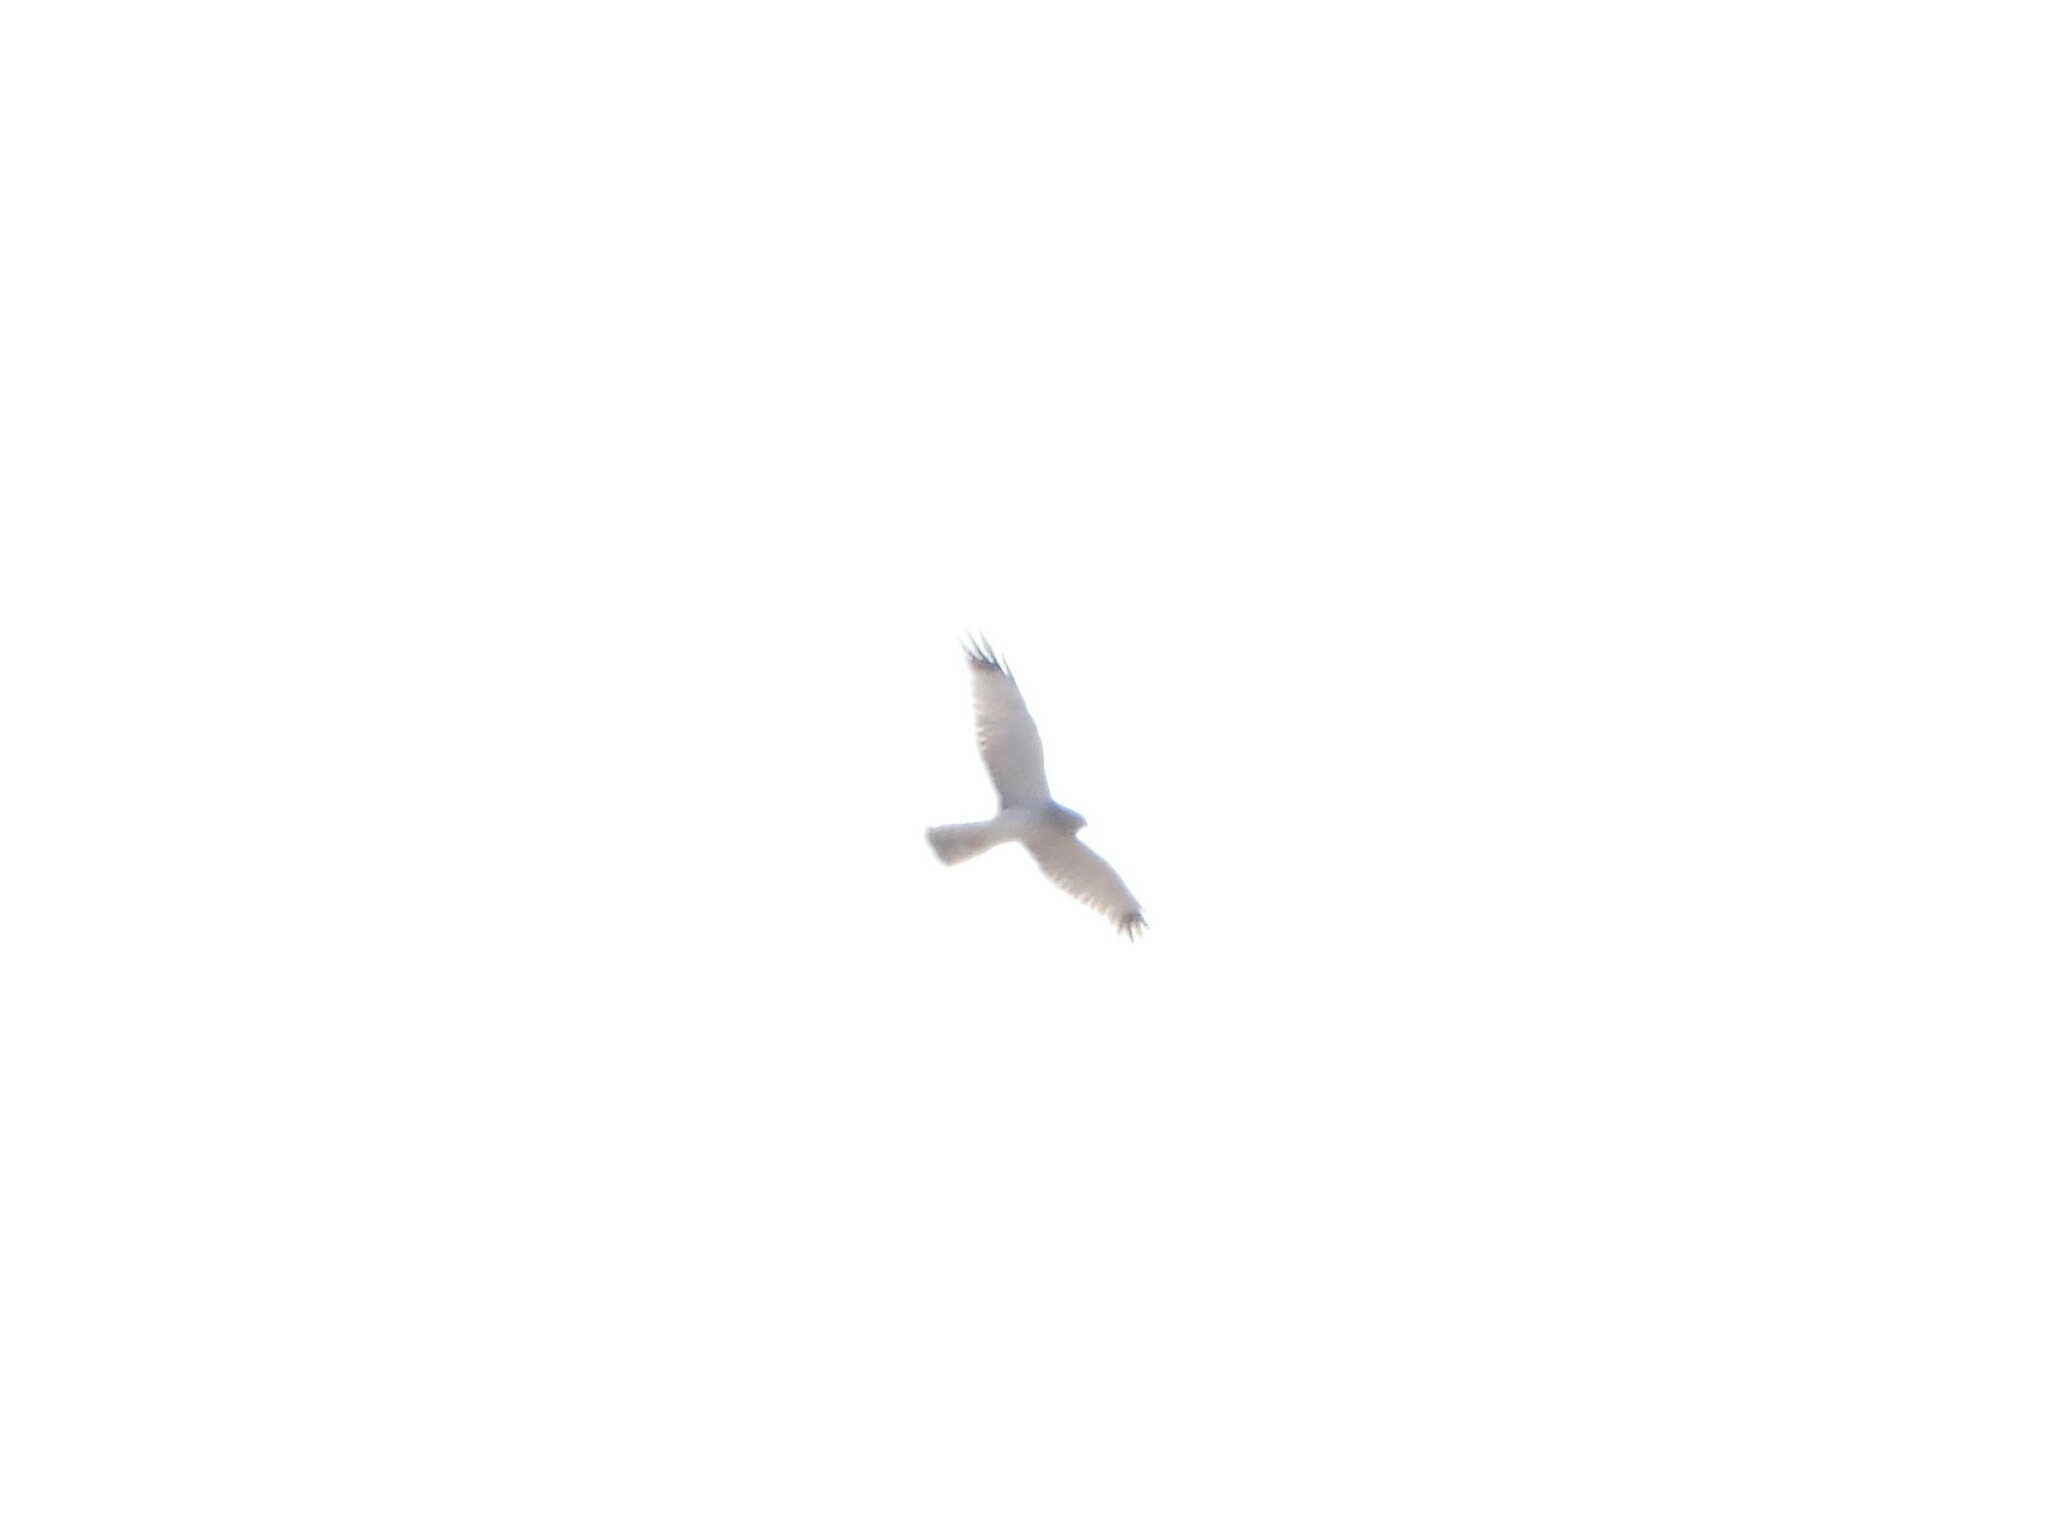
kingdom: Animalia
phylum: Chordata
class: Aves
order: Accipitriformes
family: Accipitridae
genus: Circus
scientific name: Circus cyaneus
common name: Hen harrier
